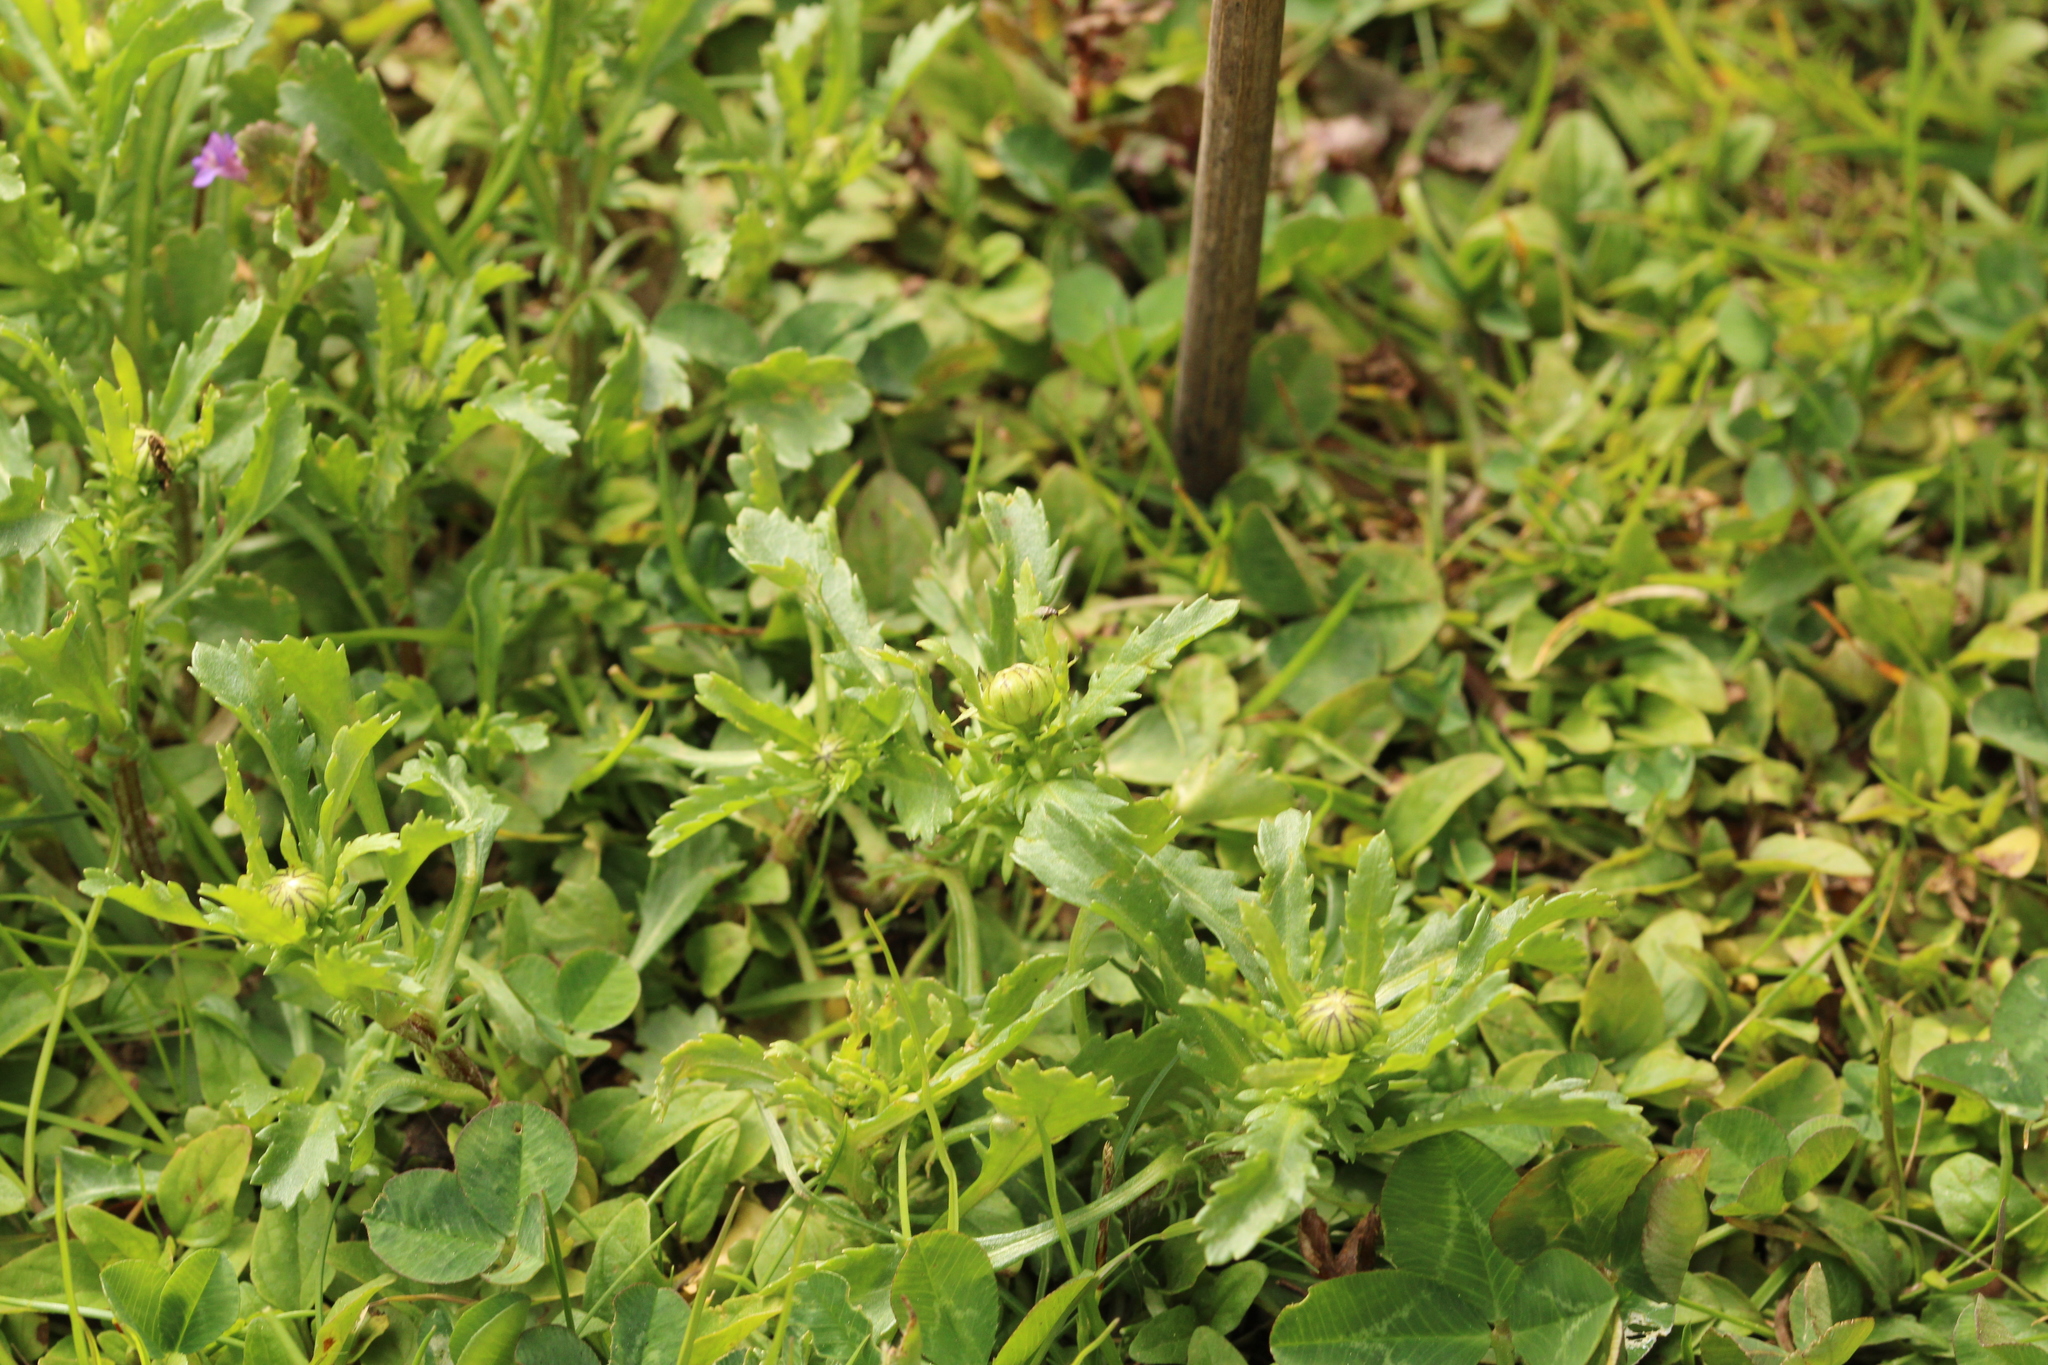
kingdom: Plantae
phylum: Tracheophyta
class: Magnoliopsida
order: Asterales
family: Asteraceae
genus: Leucanthemum
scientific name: Leucanthemum vulgare
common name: Oxeye daisy
